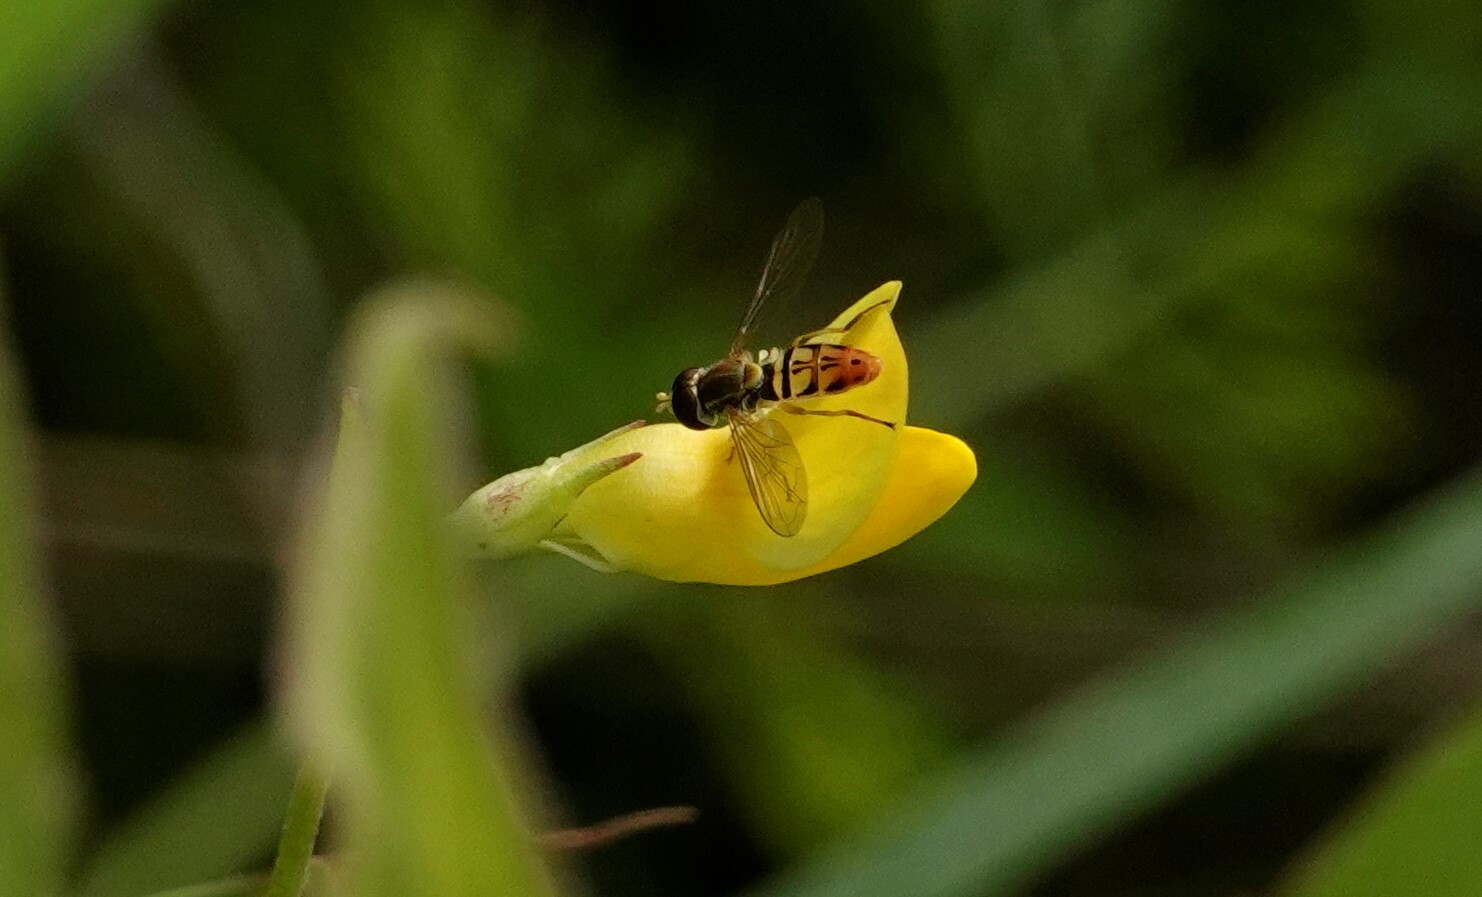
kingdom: Animalia
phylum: Arthropoda
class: Insecta
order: Diptera
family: Syrphidae
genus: Toxomerus
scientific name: Toxomerus marginatus
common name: Syrphid fly
